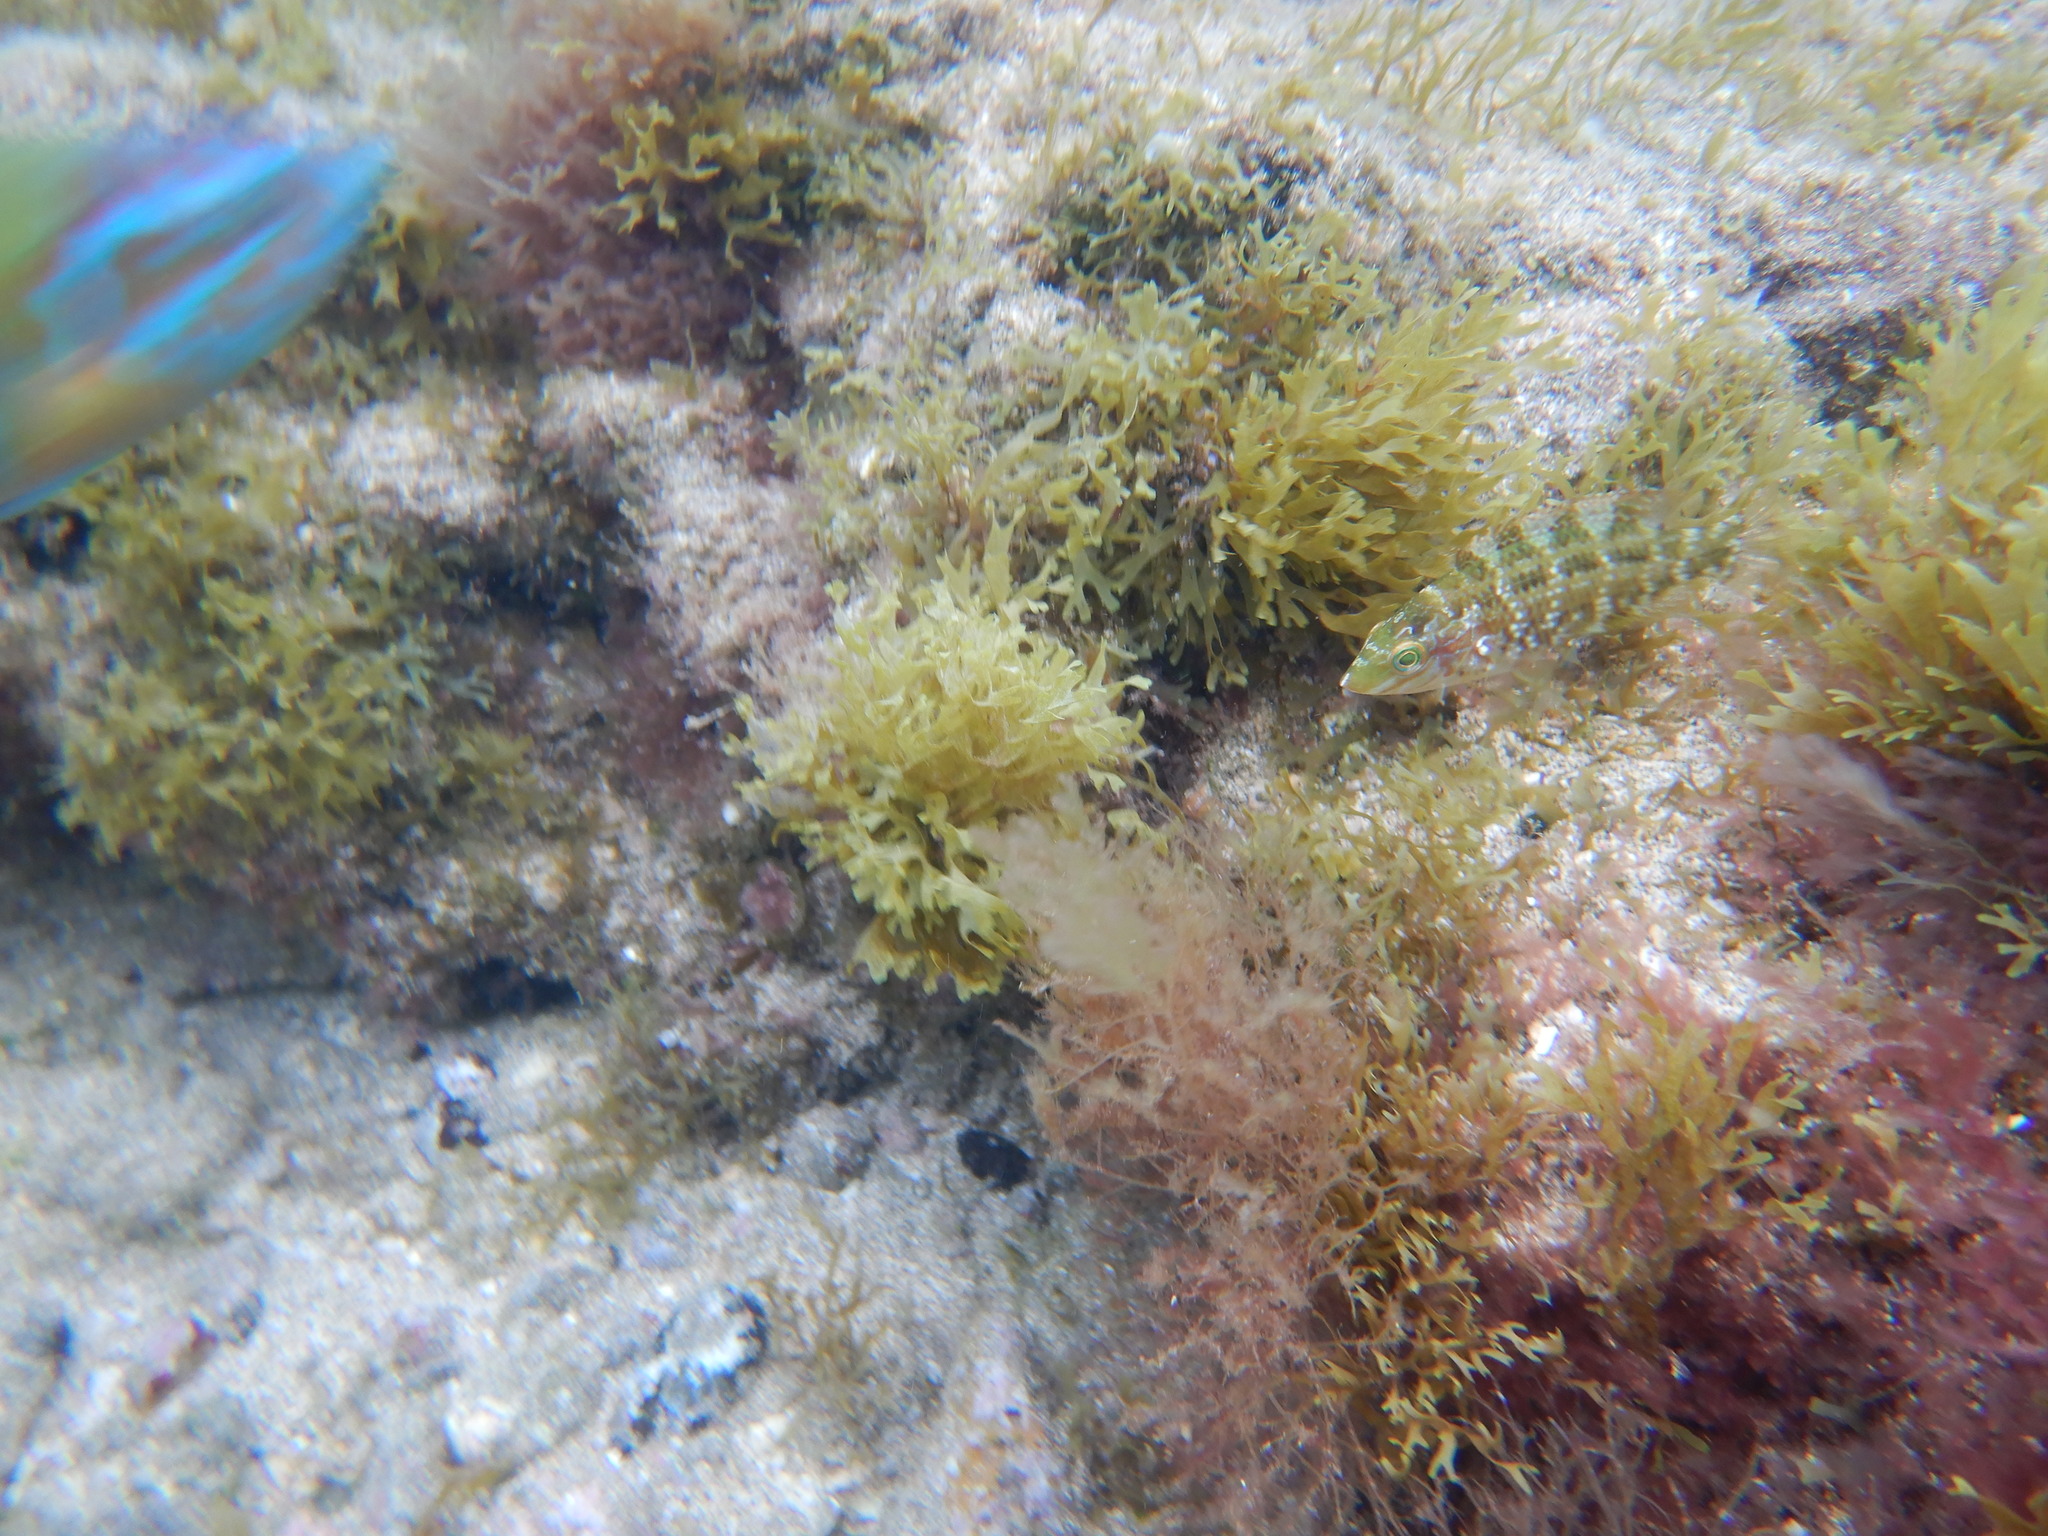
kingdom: Animalia
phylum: Chordata
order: Perciformes
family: Labridae
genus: Symphodus
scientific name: Symphodus trutta
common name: Emerald wrasse
